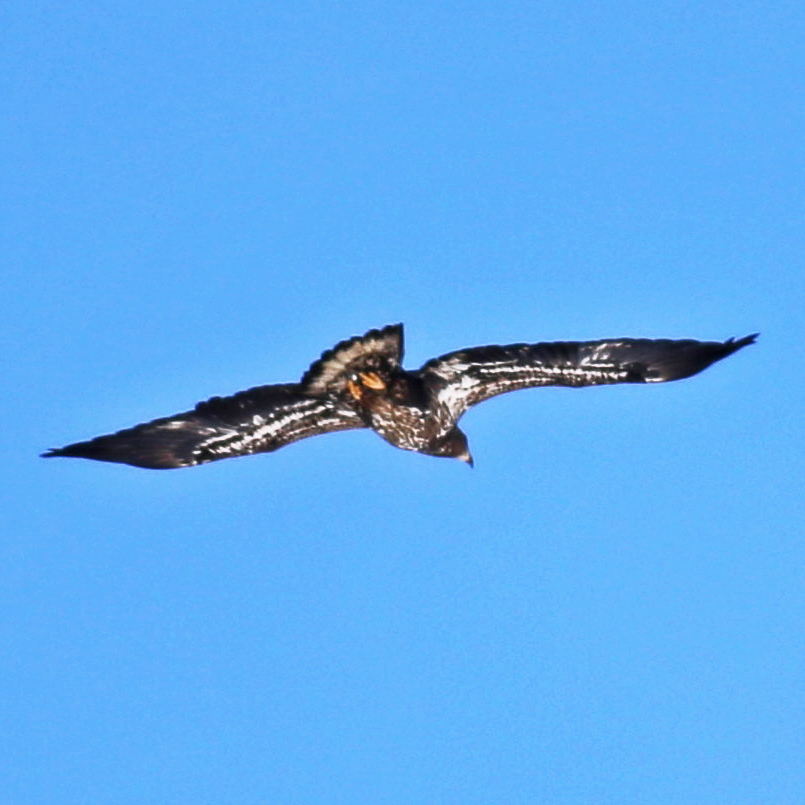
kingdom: Animalia
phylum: Chordata
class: Aves
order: Accipitriformes
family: Accipitridae
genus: Haliaeetus
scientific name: Haliaeetus leucocephalus
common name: Bald eagle
